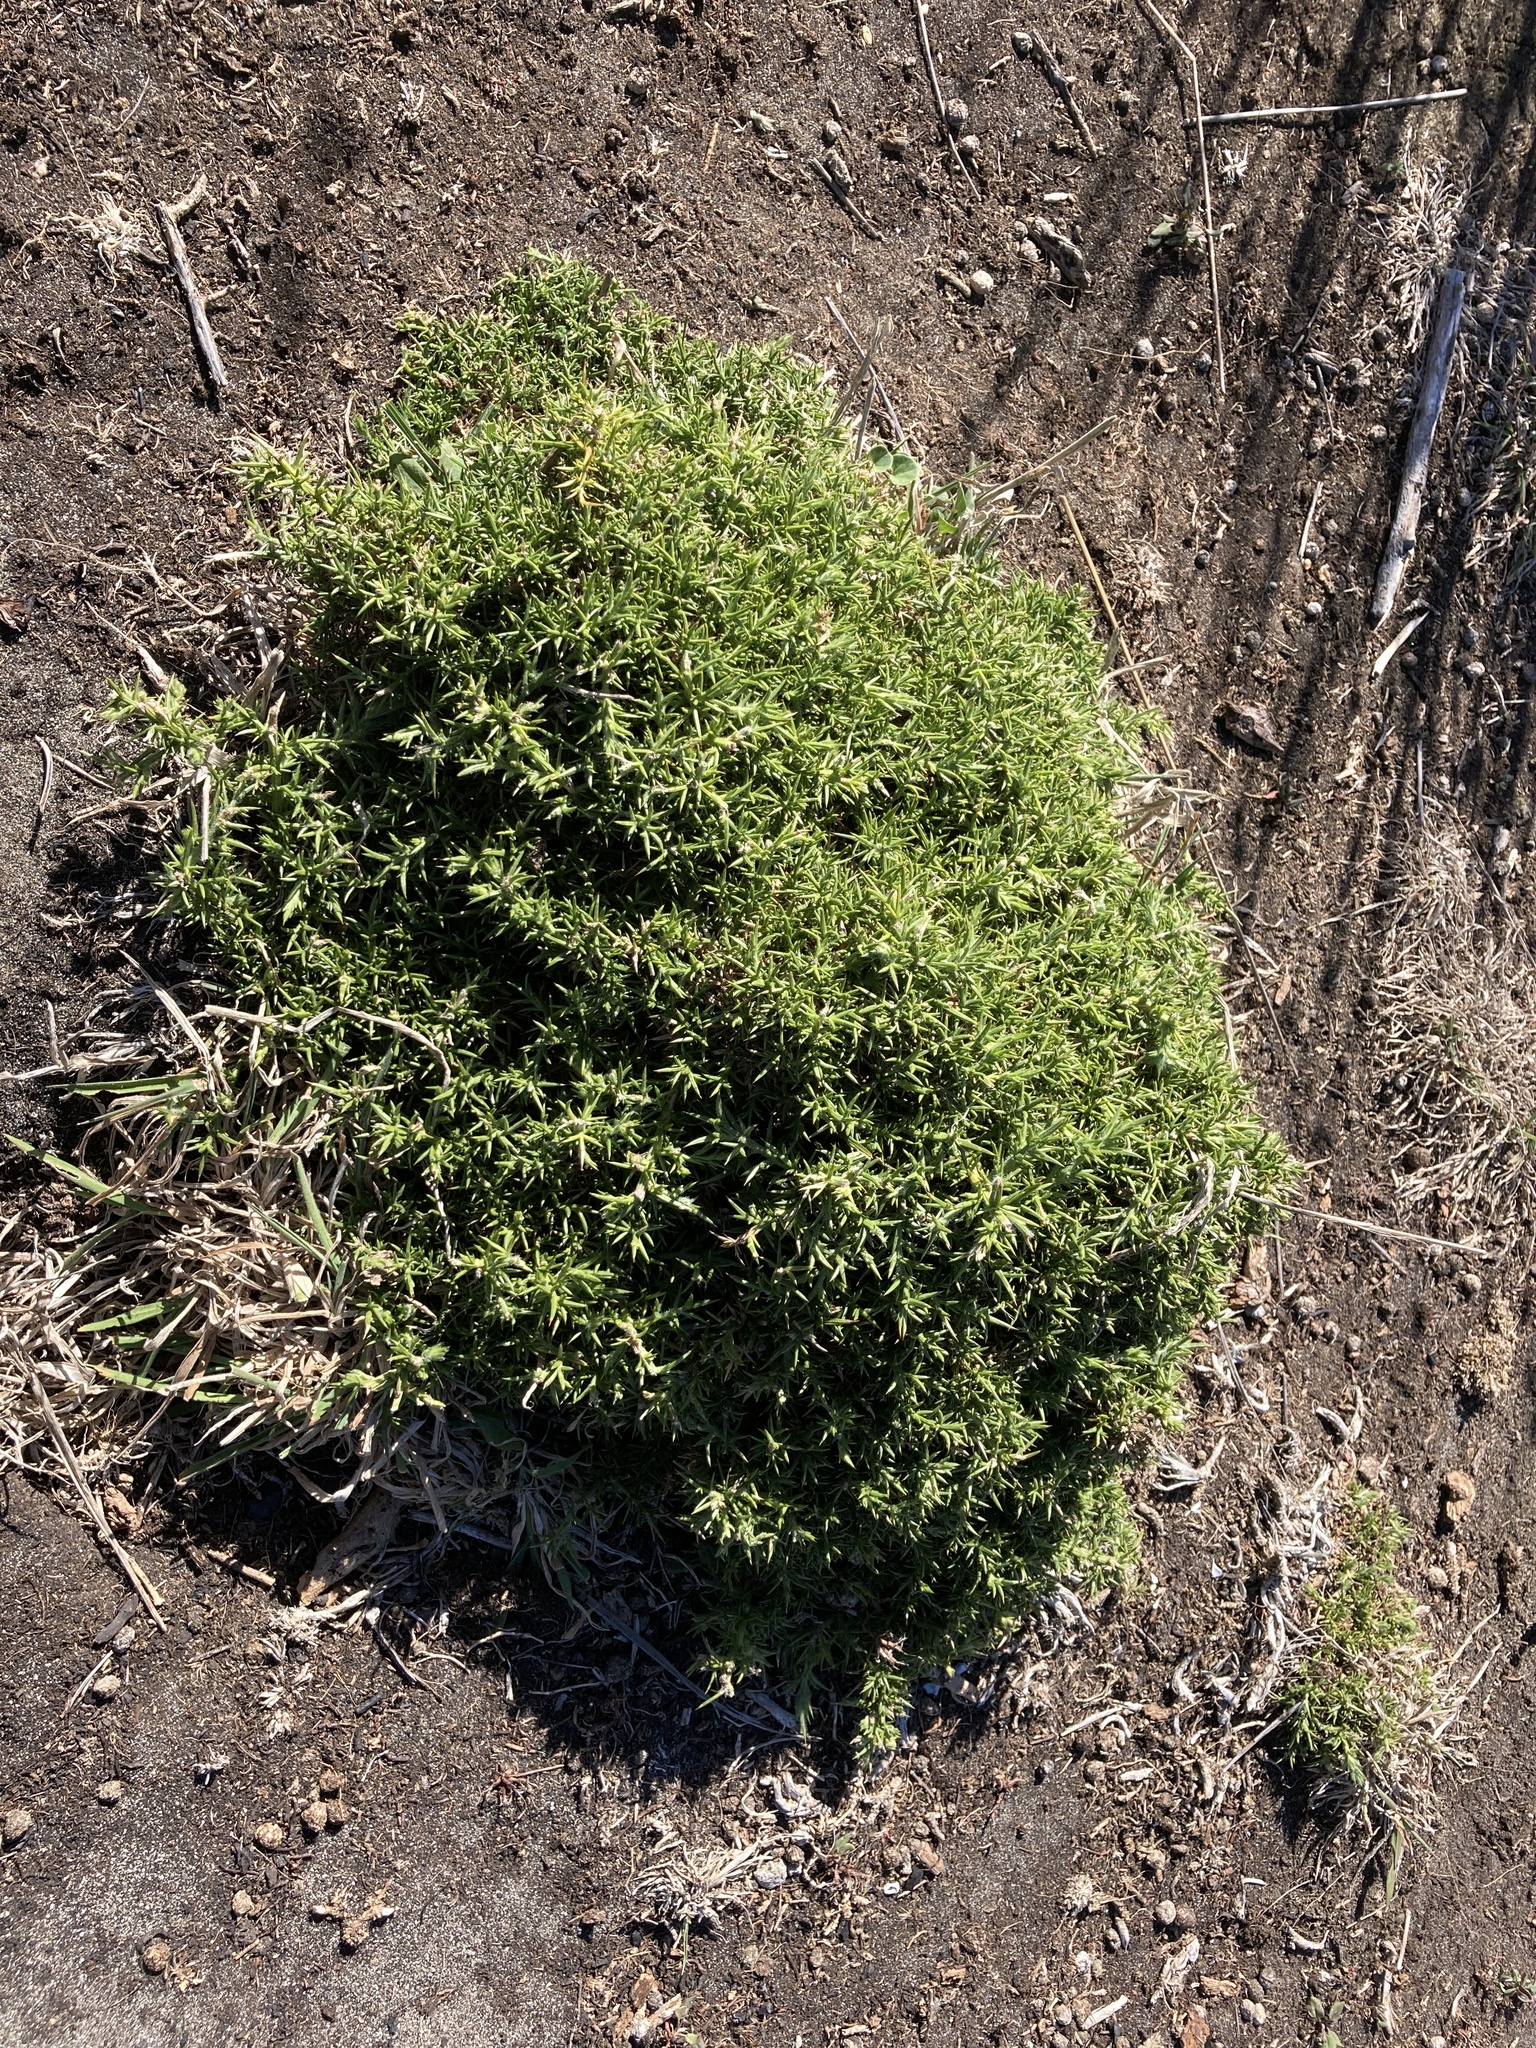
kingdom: Plantae
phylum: Tracheophyta
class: Magnoliopsida
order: Fabales
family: Fabaceae
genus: Ulex
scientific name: Ulex europaeus
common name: Common gorse
